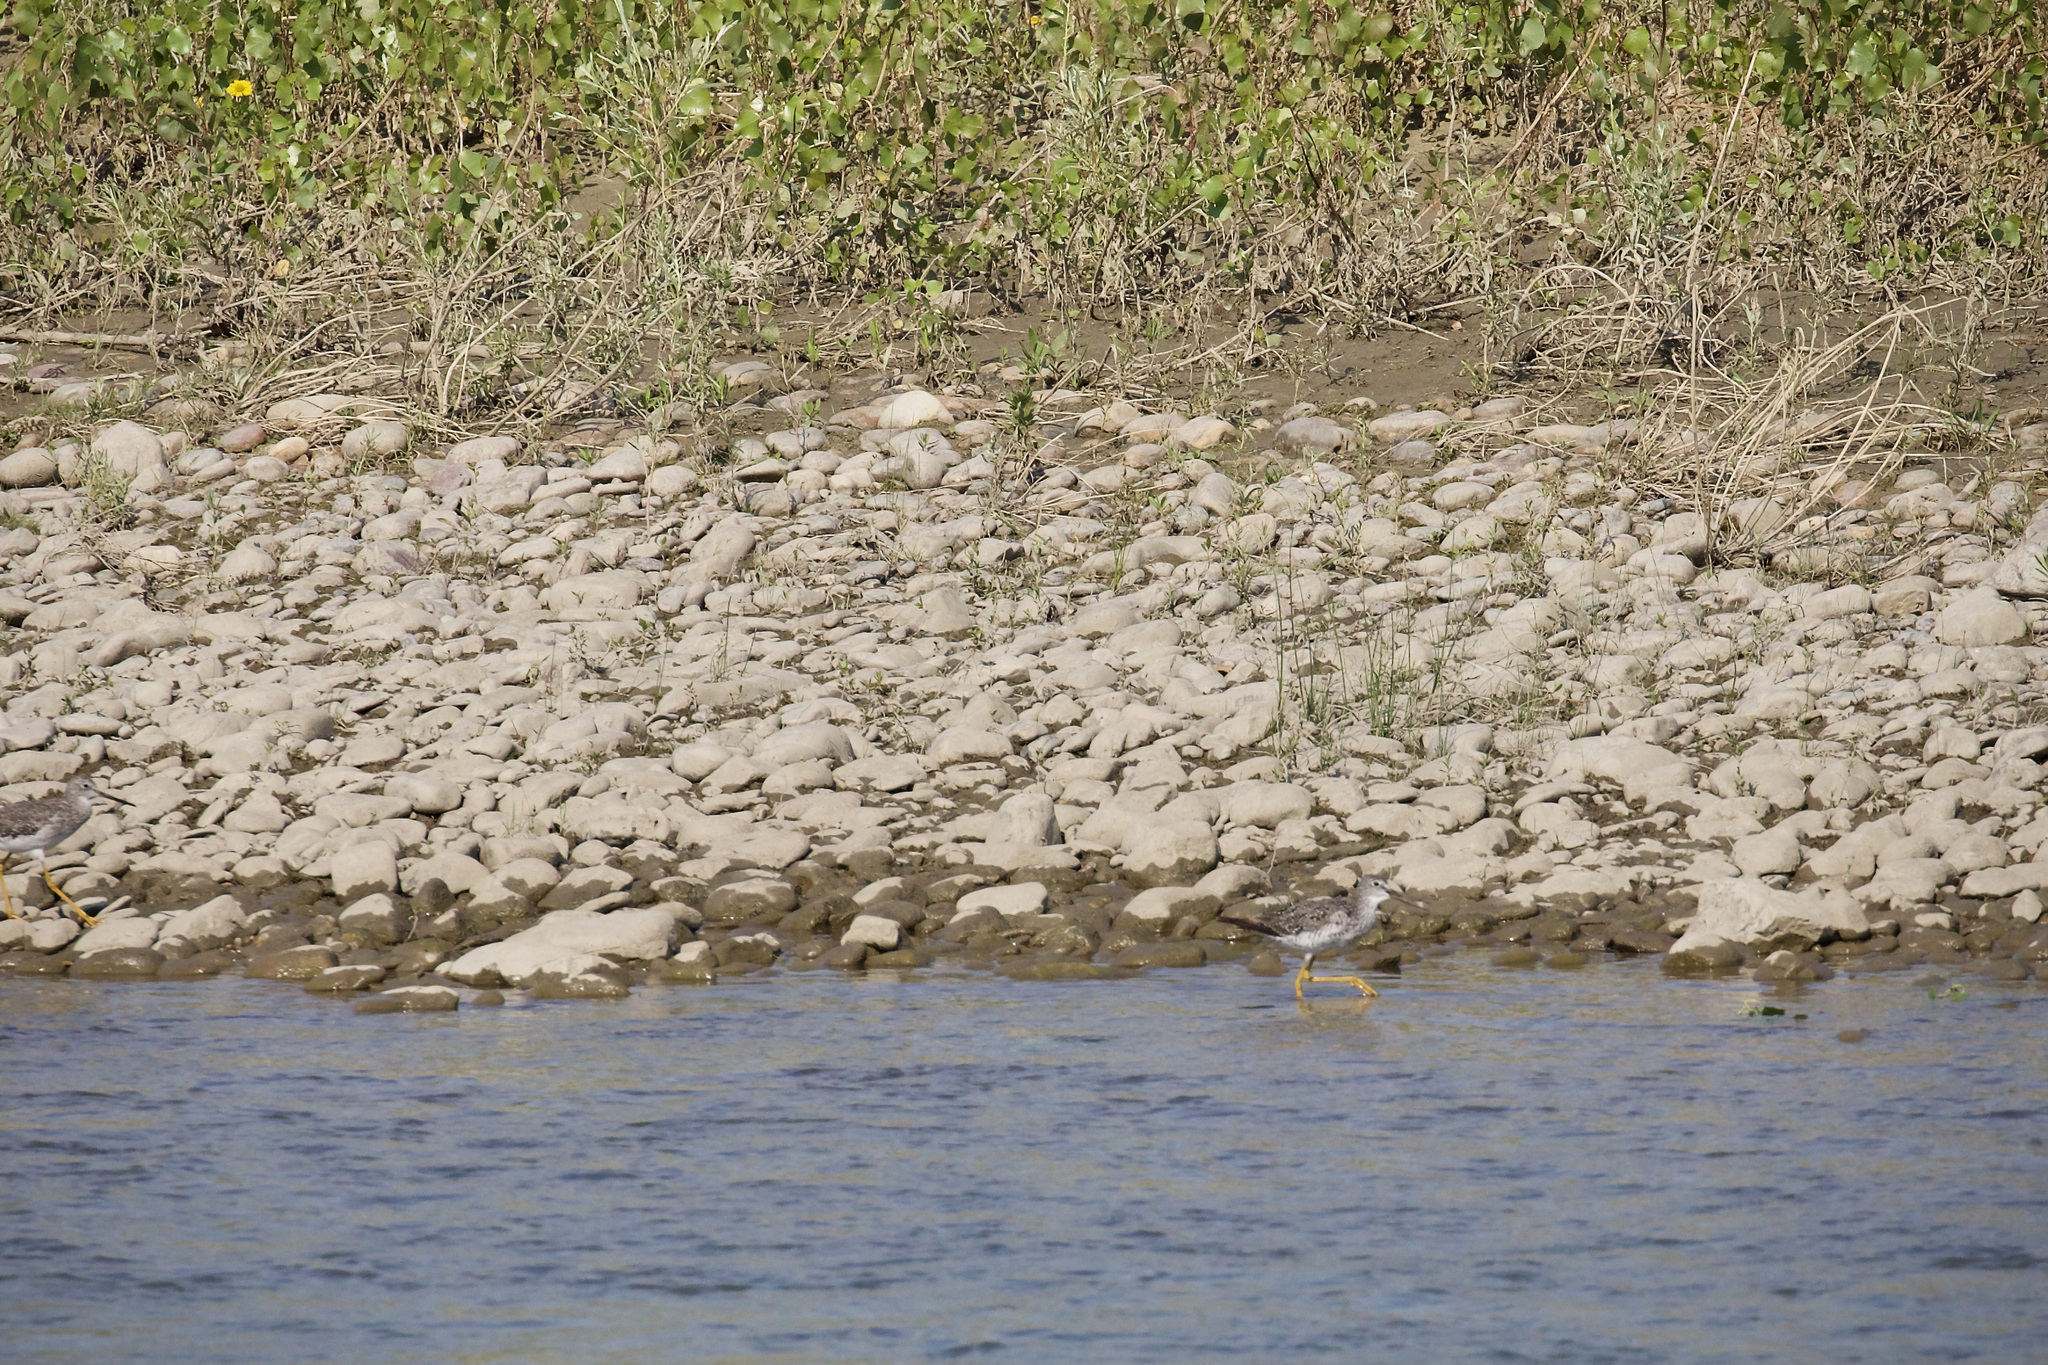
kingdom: Animalia
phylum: Chordata
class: Aves
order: Charadriiformes
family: Scolopacidae
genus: Tringa
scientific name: Tringa melanoleuca
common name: Greater yellowlegs
